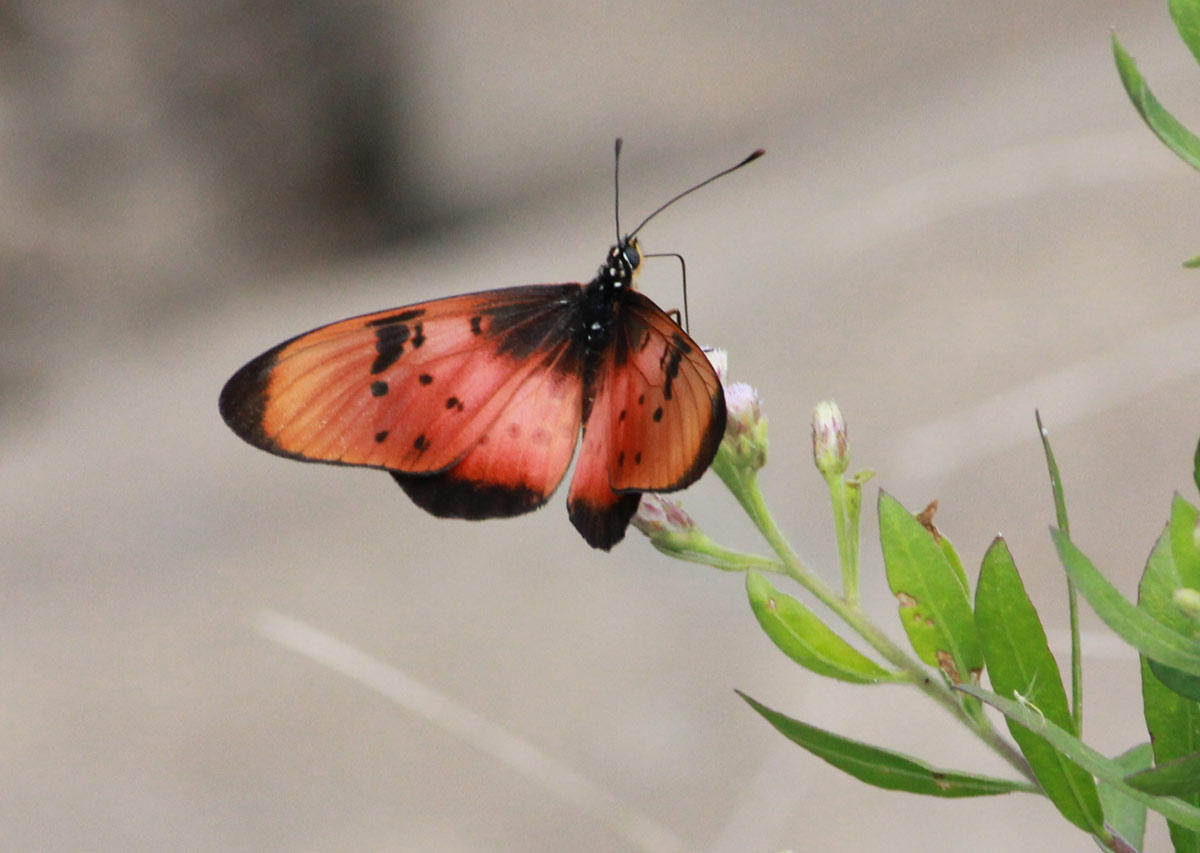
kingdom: Animalia
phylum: Arthropoda
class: Insecta
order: Lepidoptera
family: Nymphalidae
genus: Stephenia
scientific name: Stephenia
